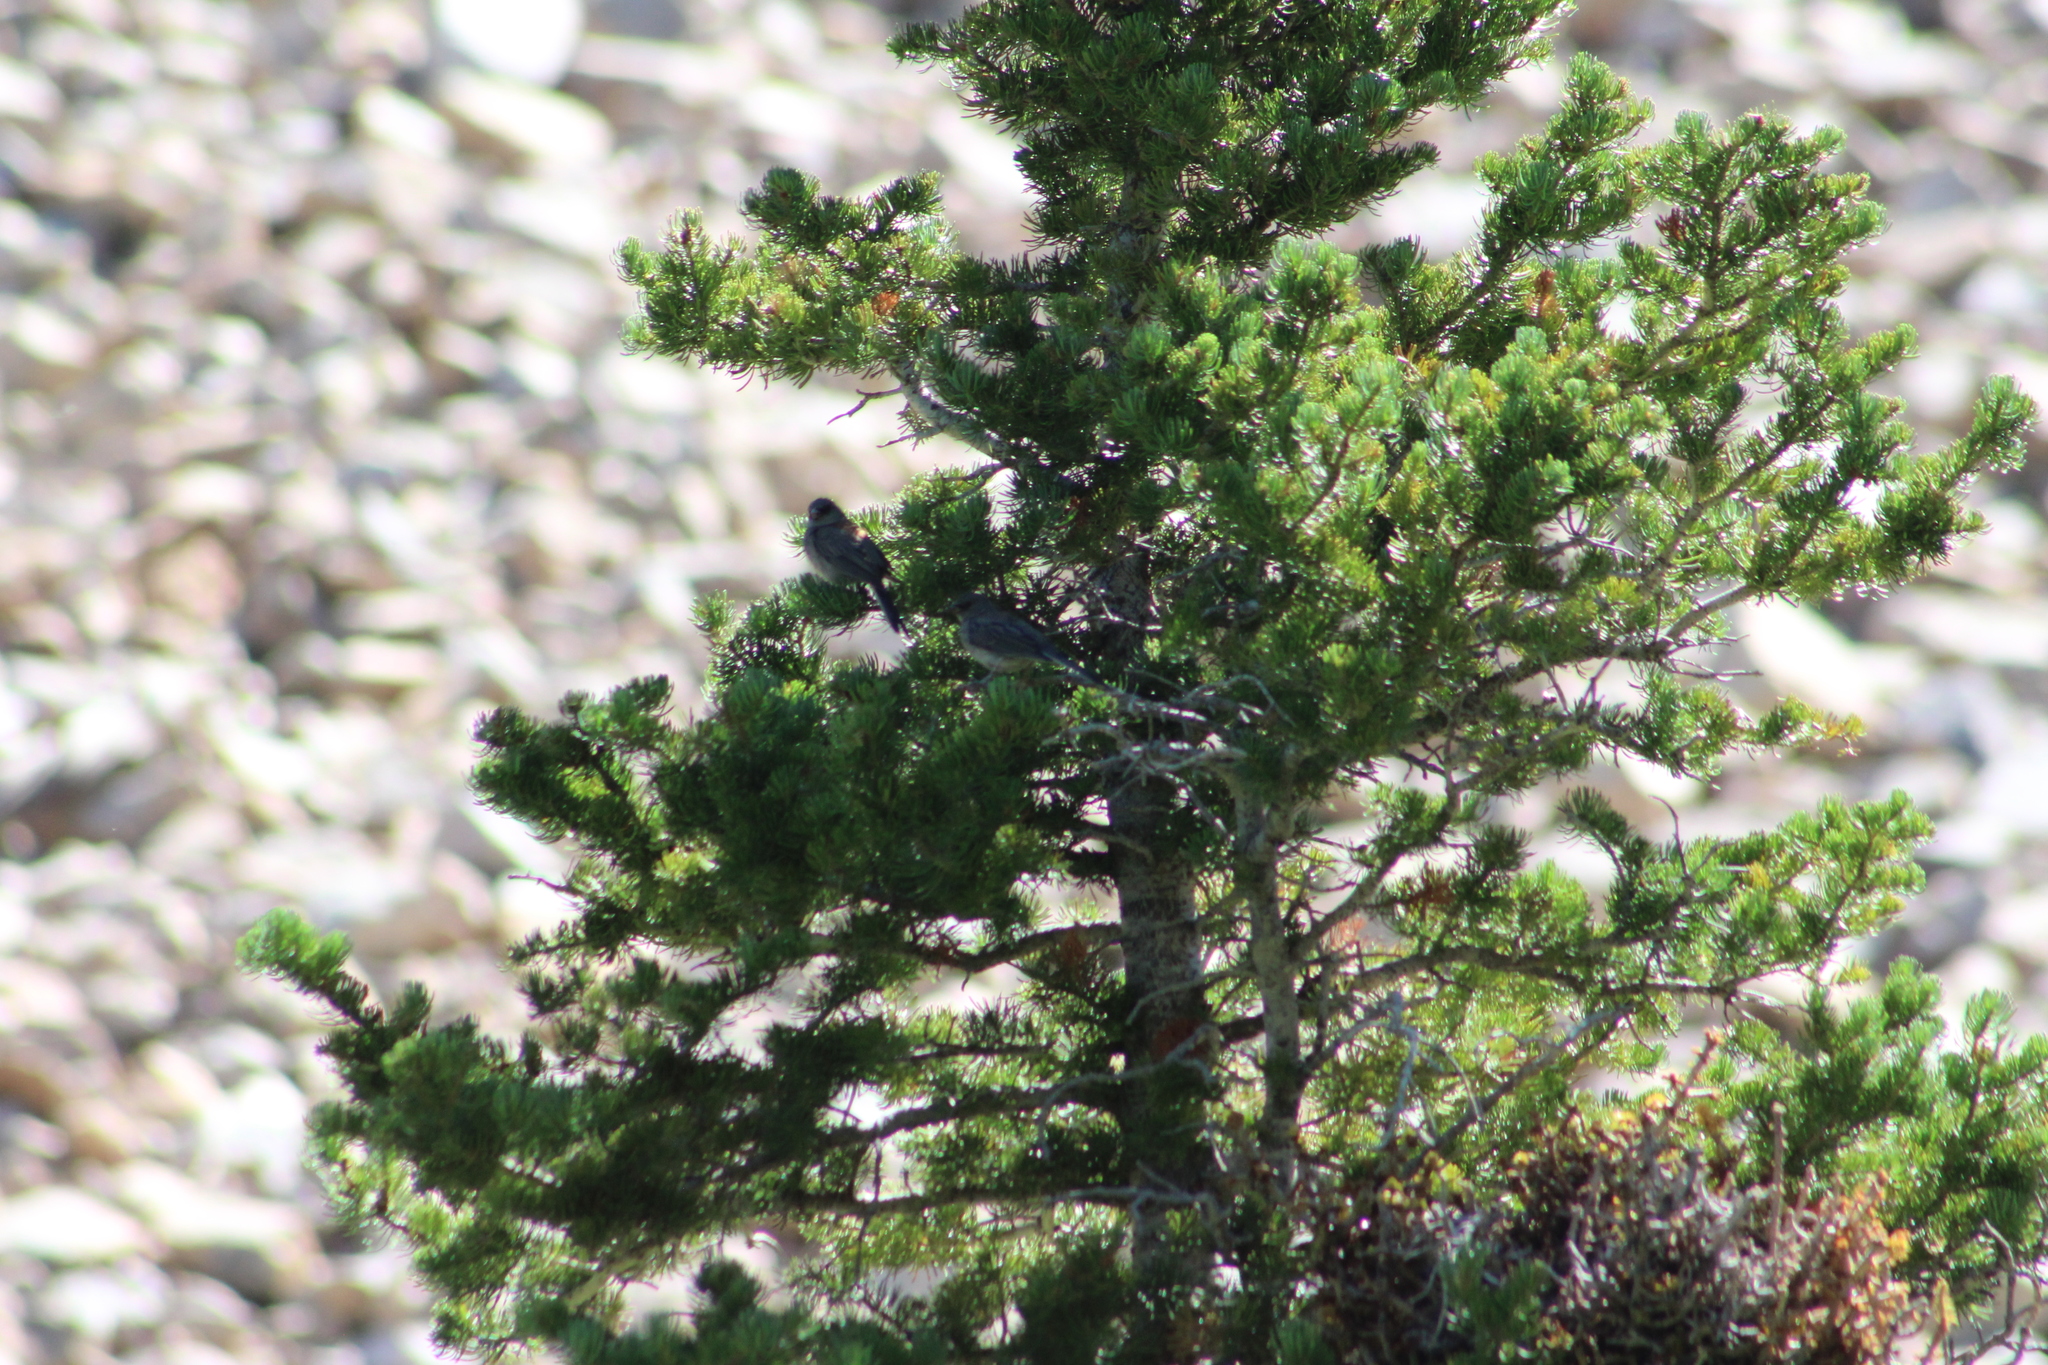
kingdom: Animalia
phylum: Chordata
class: Aves
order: Passeriformes
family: Passerellidae
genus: Junco
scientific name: Junco hyemalis
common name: Dark-eyed junco
